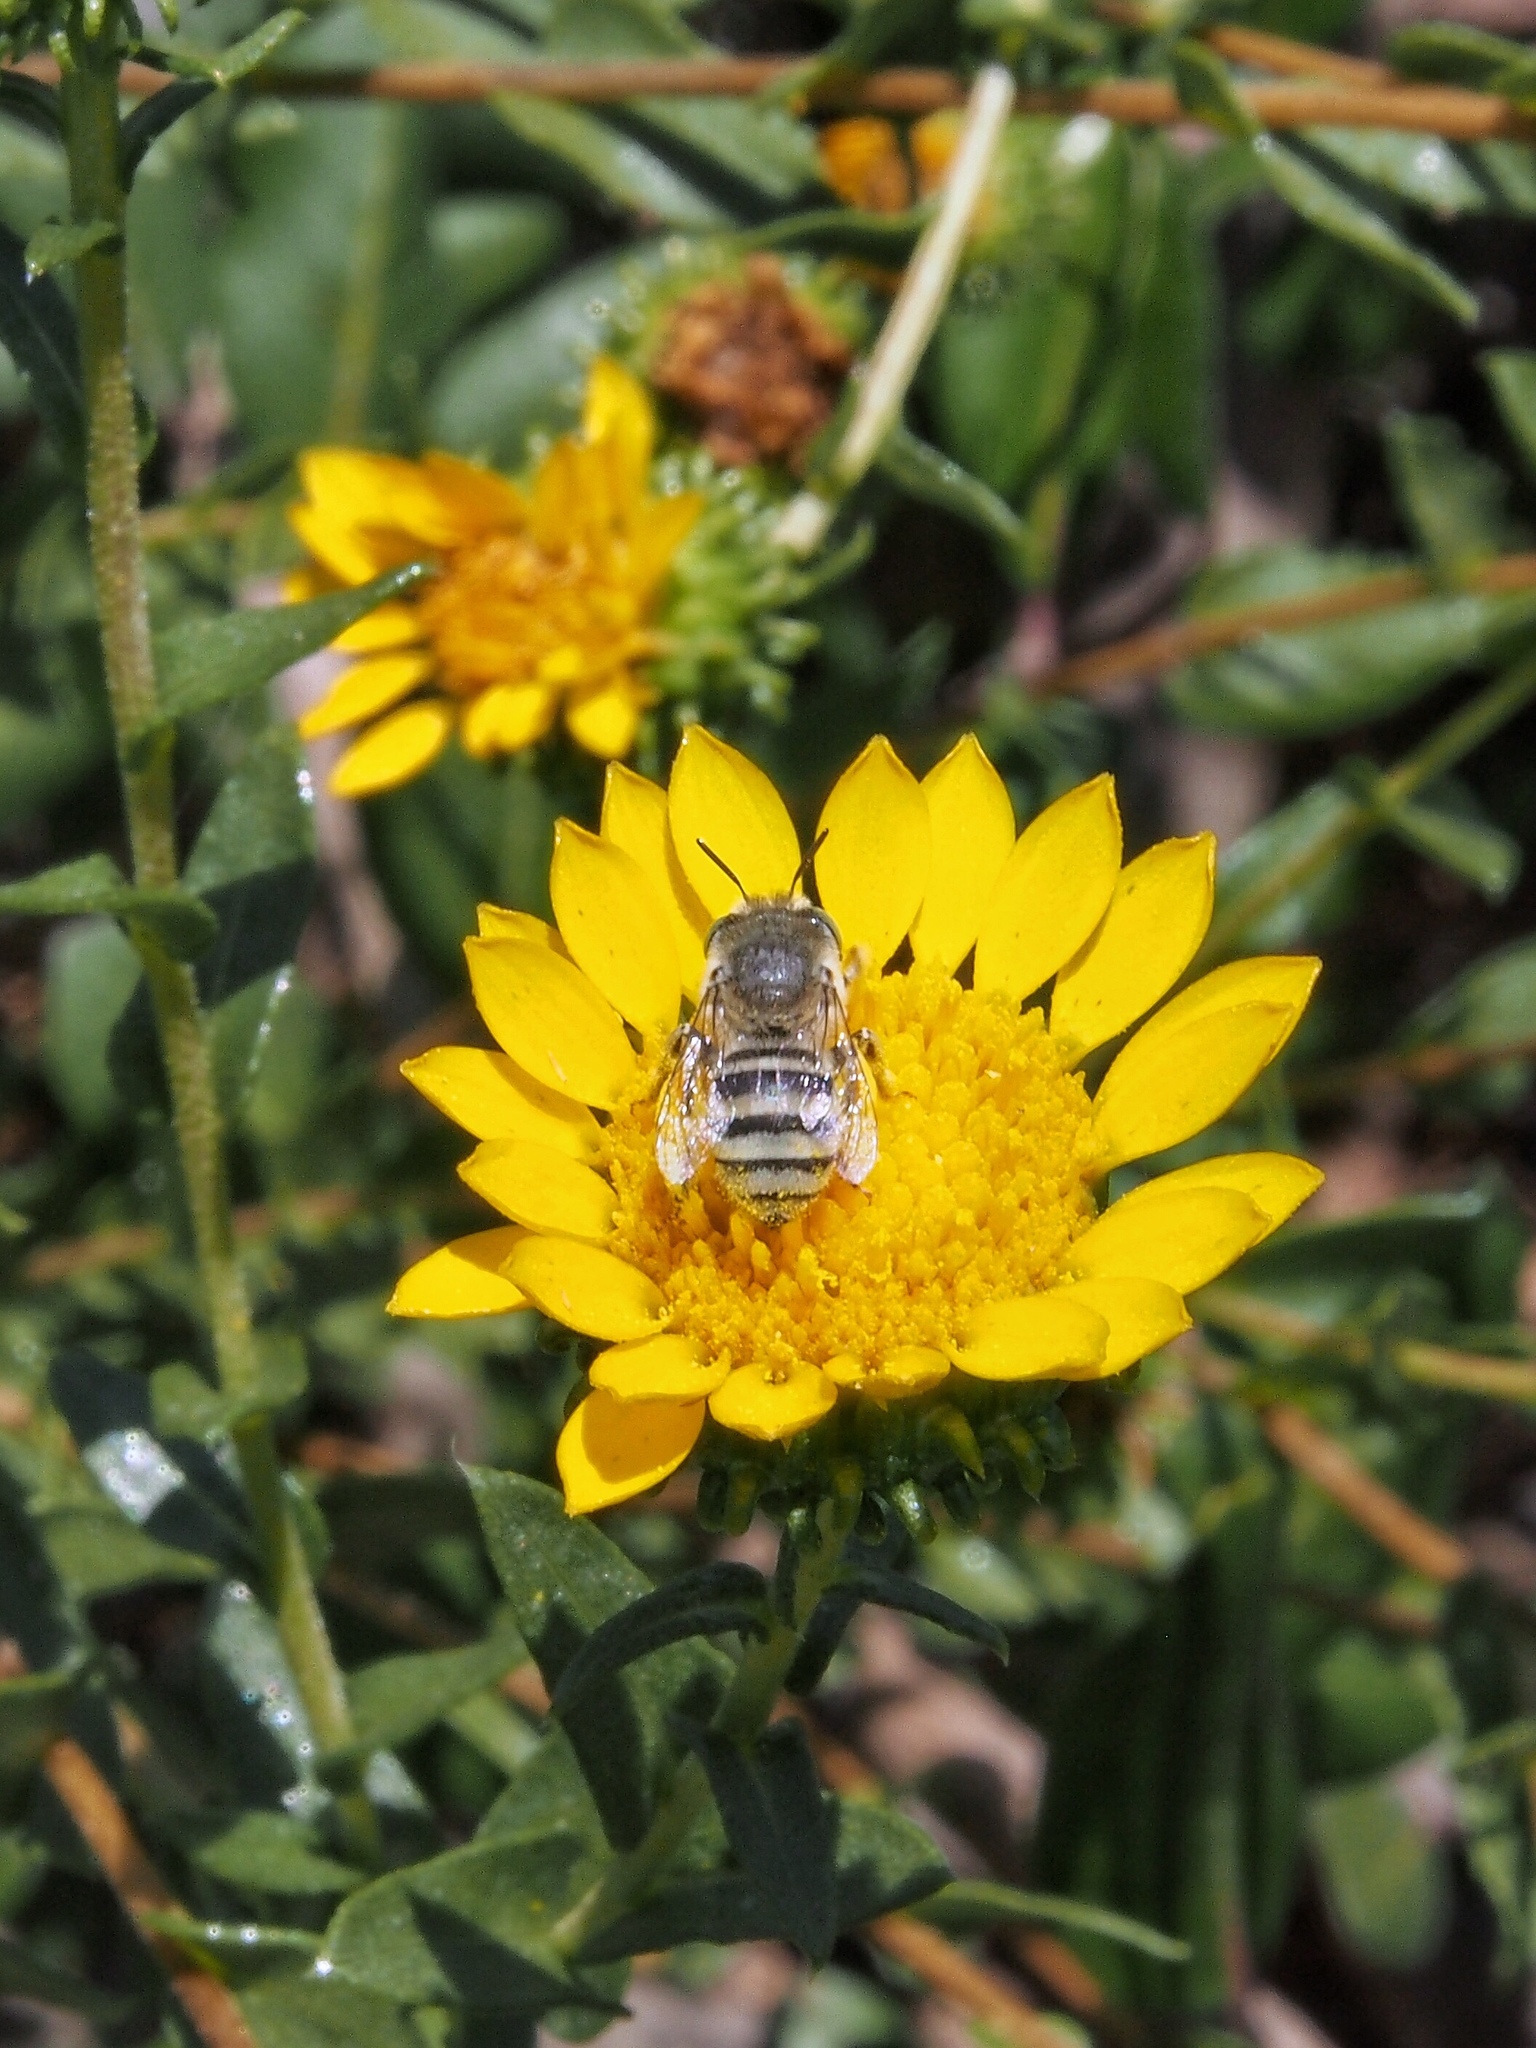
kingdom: Animalia
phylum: Arthropoda
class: Insecta
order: Hymenoptera
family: Apidae
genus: Anthophora
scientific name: Anthophora curta
